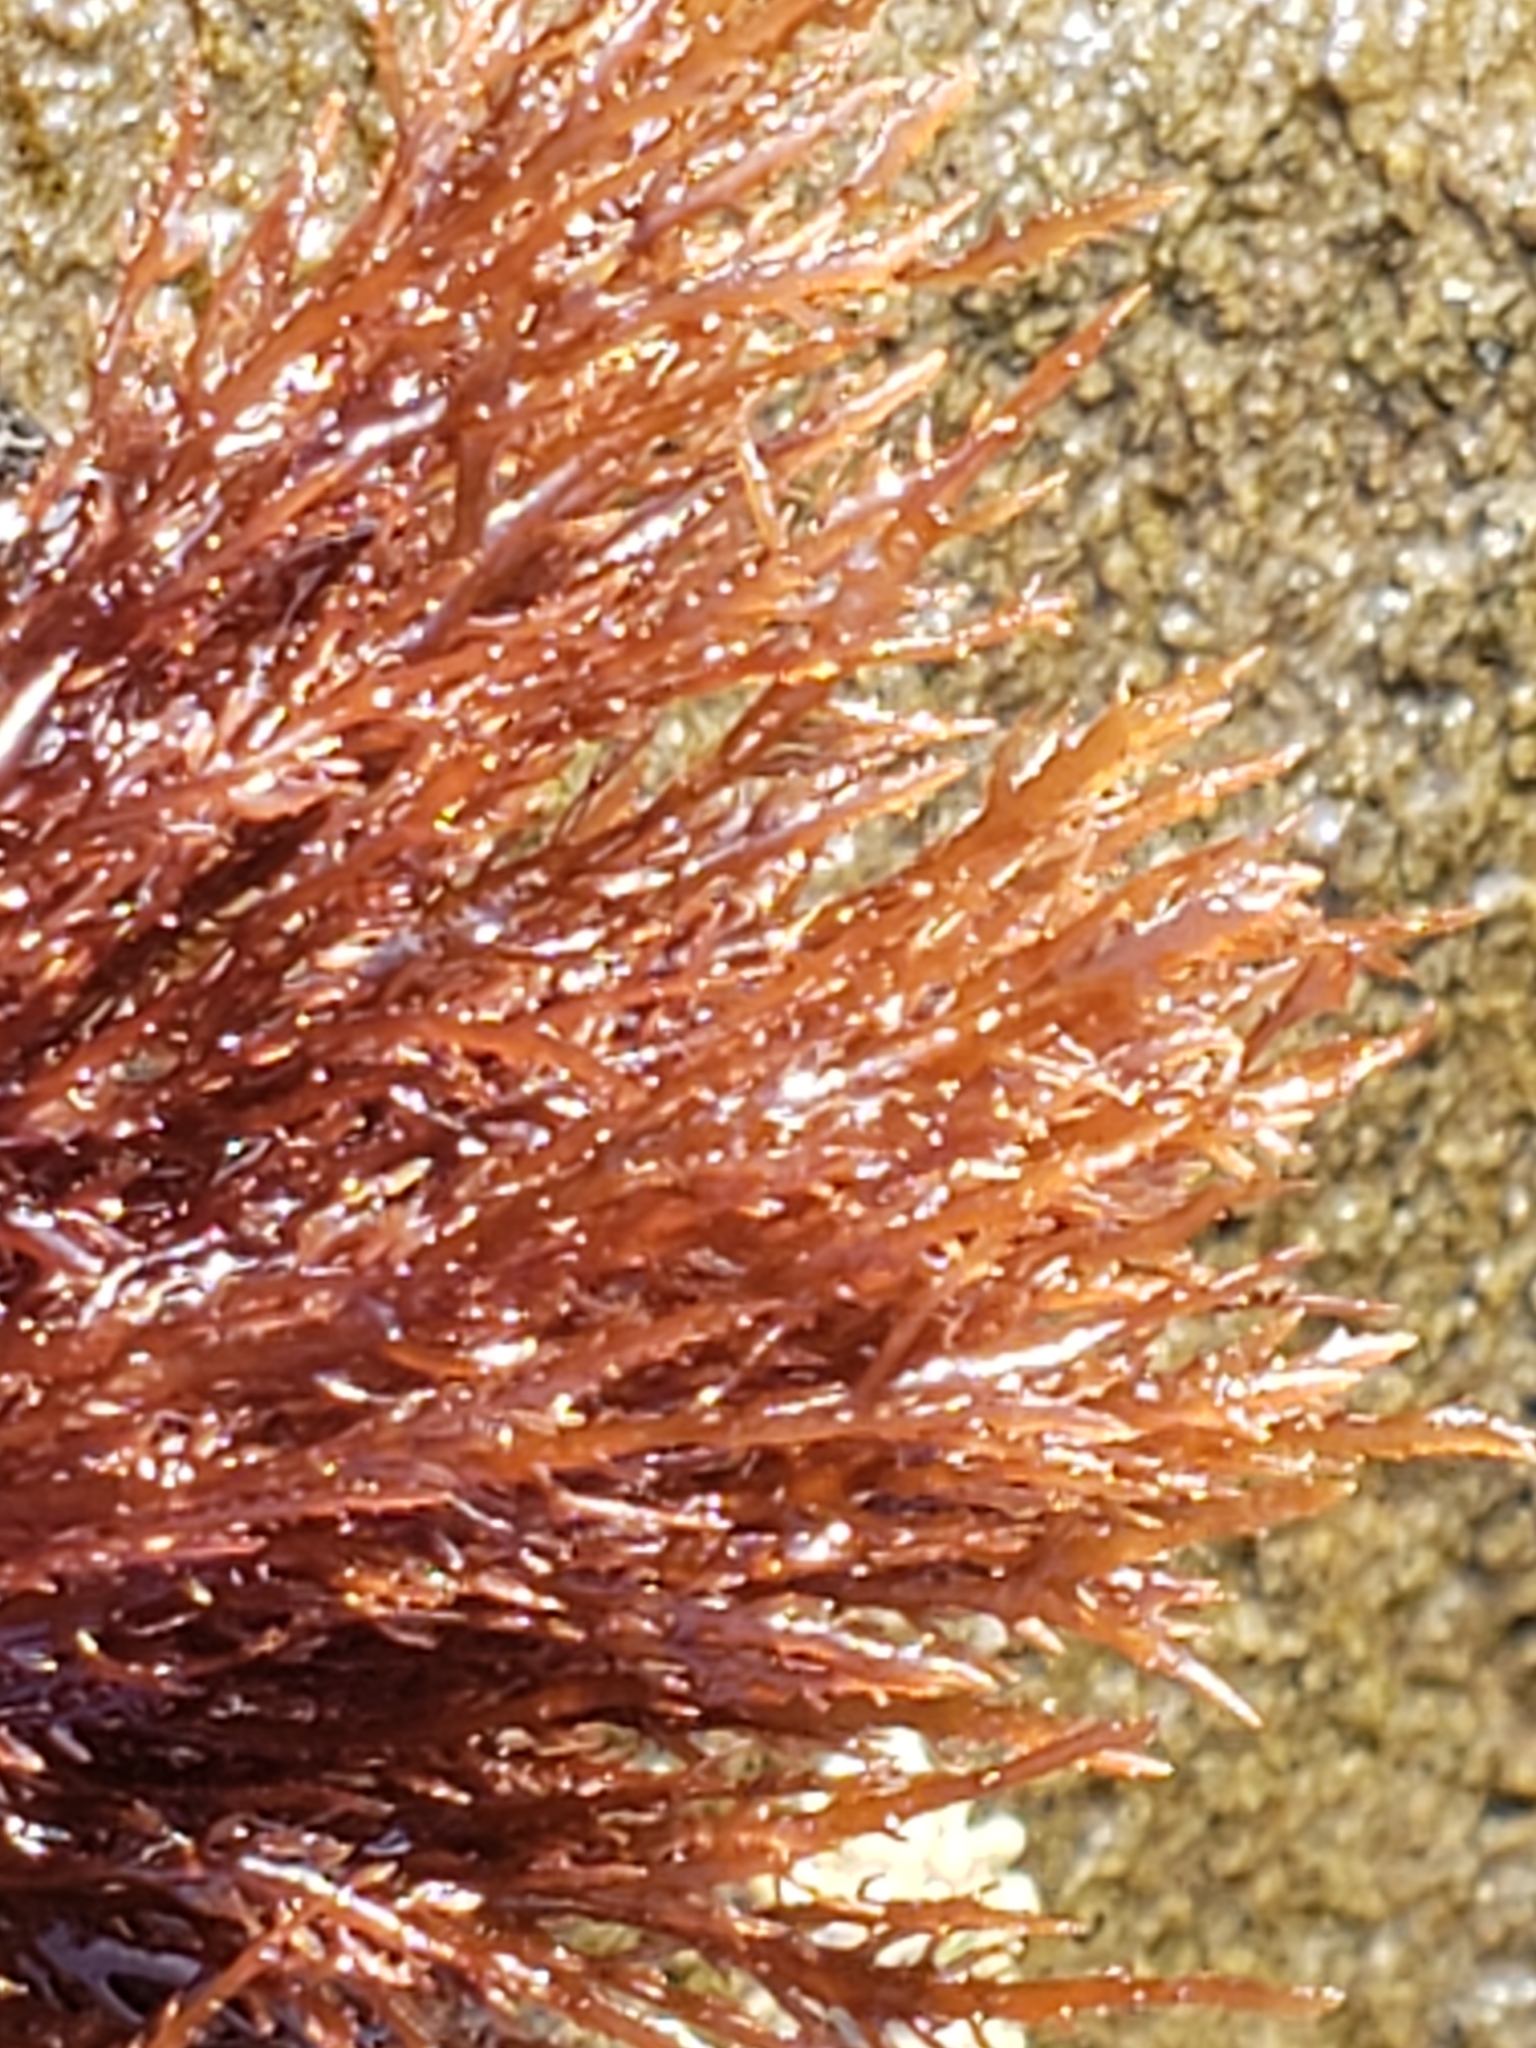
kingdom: Plantae
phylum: Rhodophyta
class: Florideophyceae
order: Gelidiales
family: Gelidiaceae
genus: Gelidium
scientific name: Gelidium coulteri
